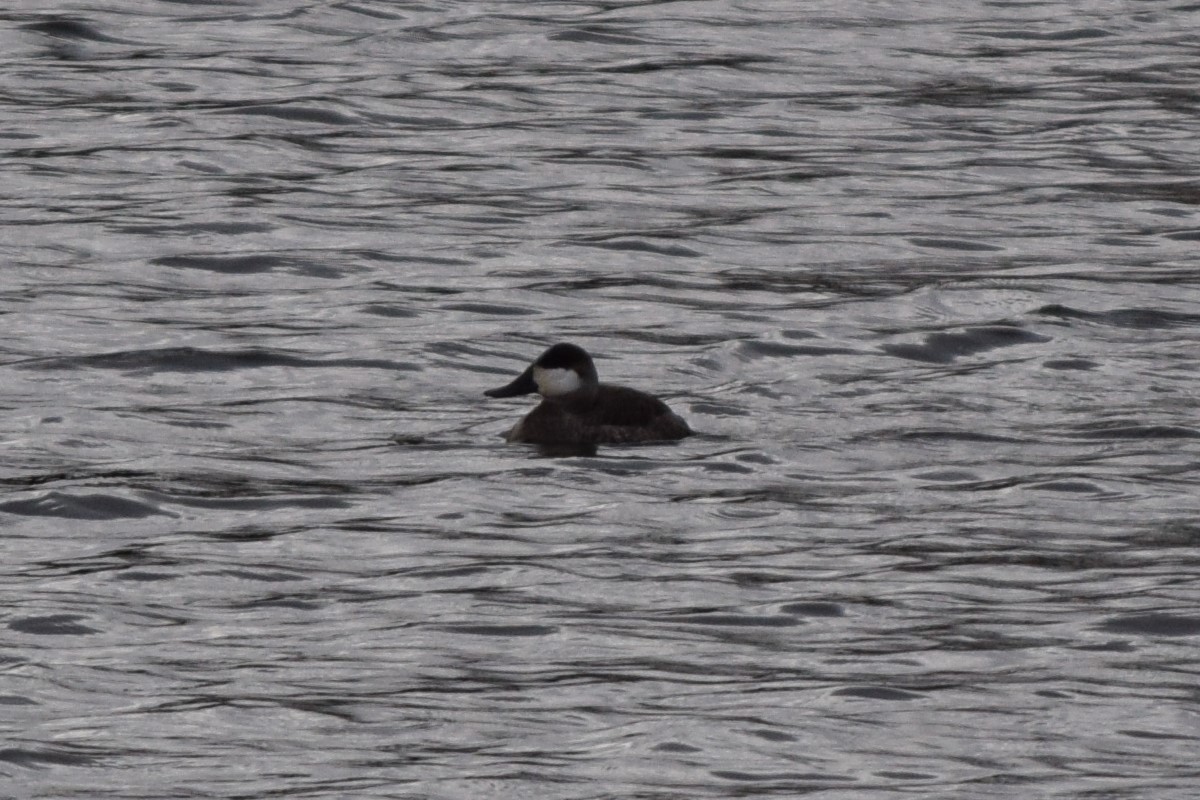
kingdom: Animalia
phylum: Chordata
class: Aves
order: Anseriformes
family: Anatidae
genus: Oxyura
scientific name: Oxyura jamaicensis
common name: Ruddy duck
